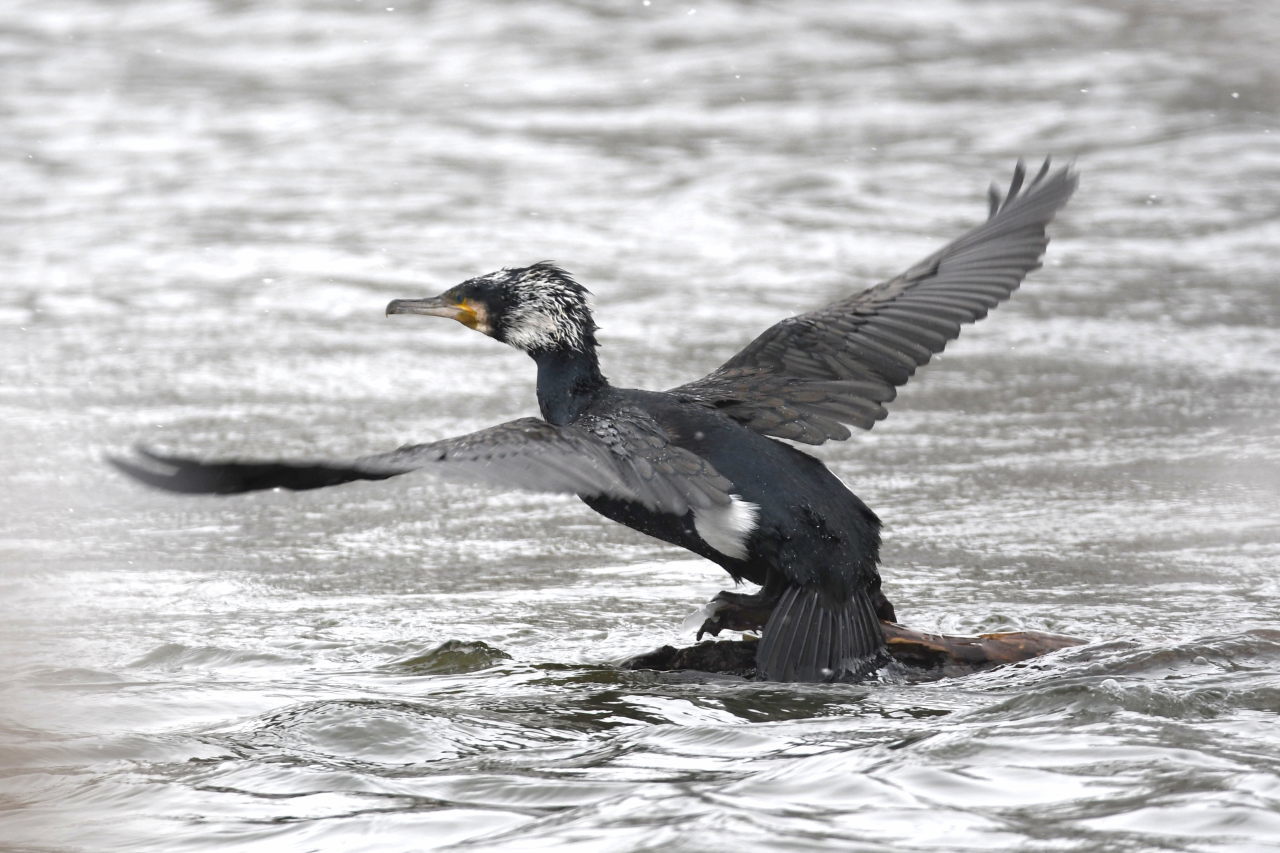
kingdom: Animalia
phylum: Chordata
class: Aves
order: Suliformes
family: Phalacrocoracidae
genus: Phalacrocorax
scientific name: Phalacrocorax carbo
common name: Great cormorant
